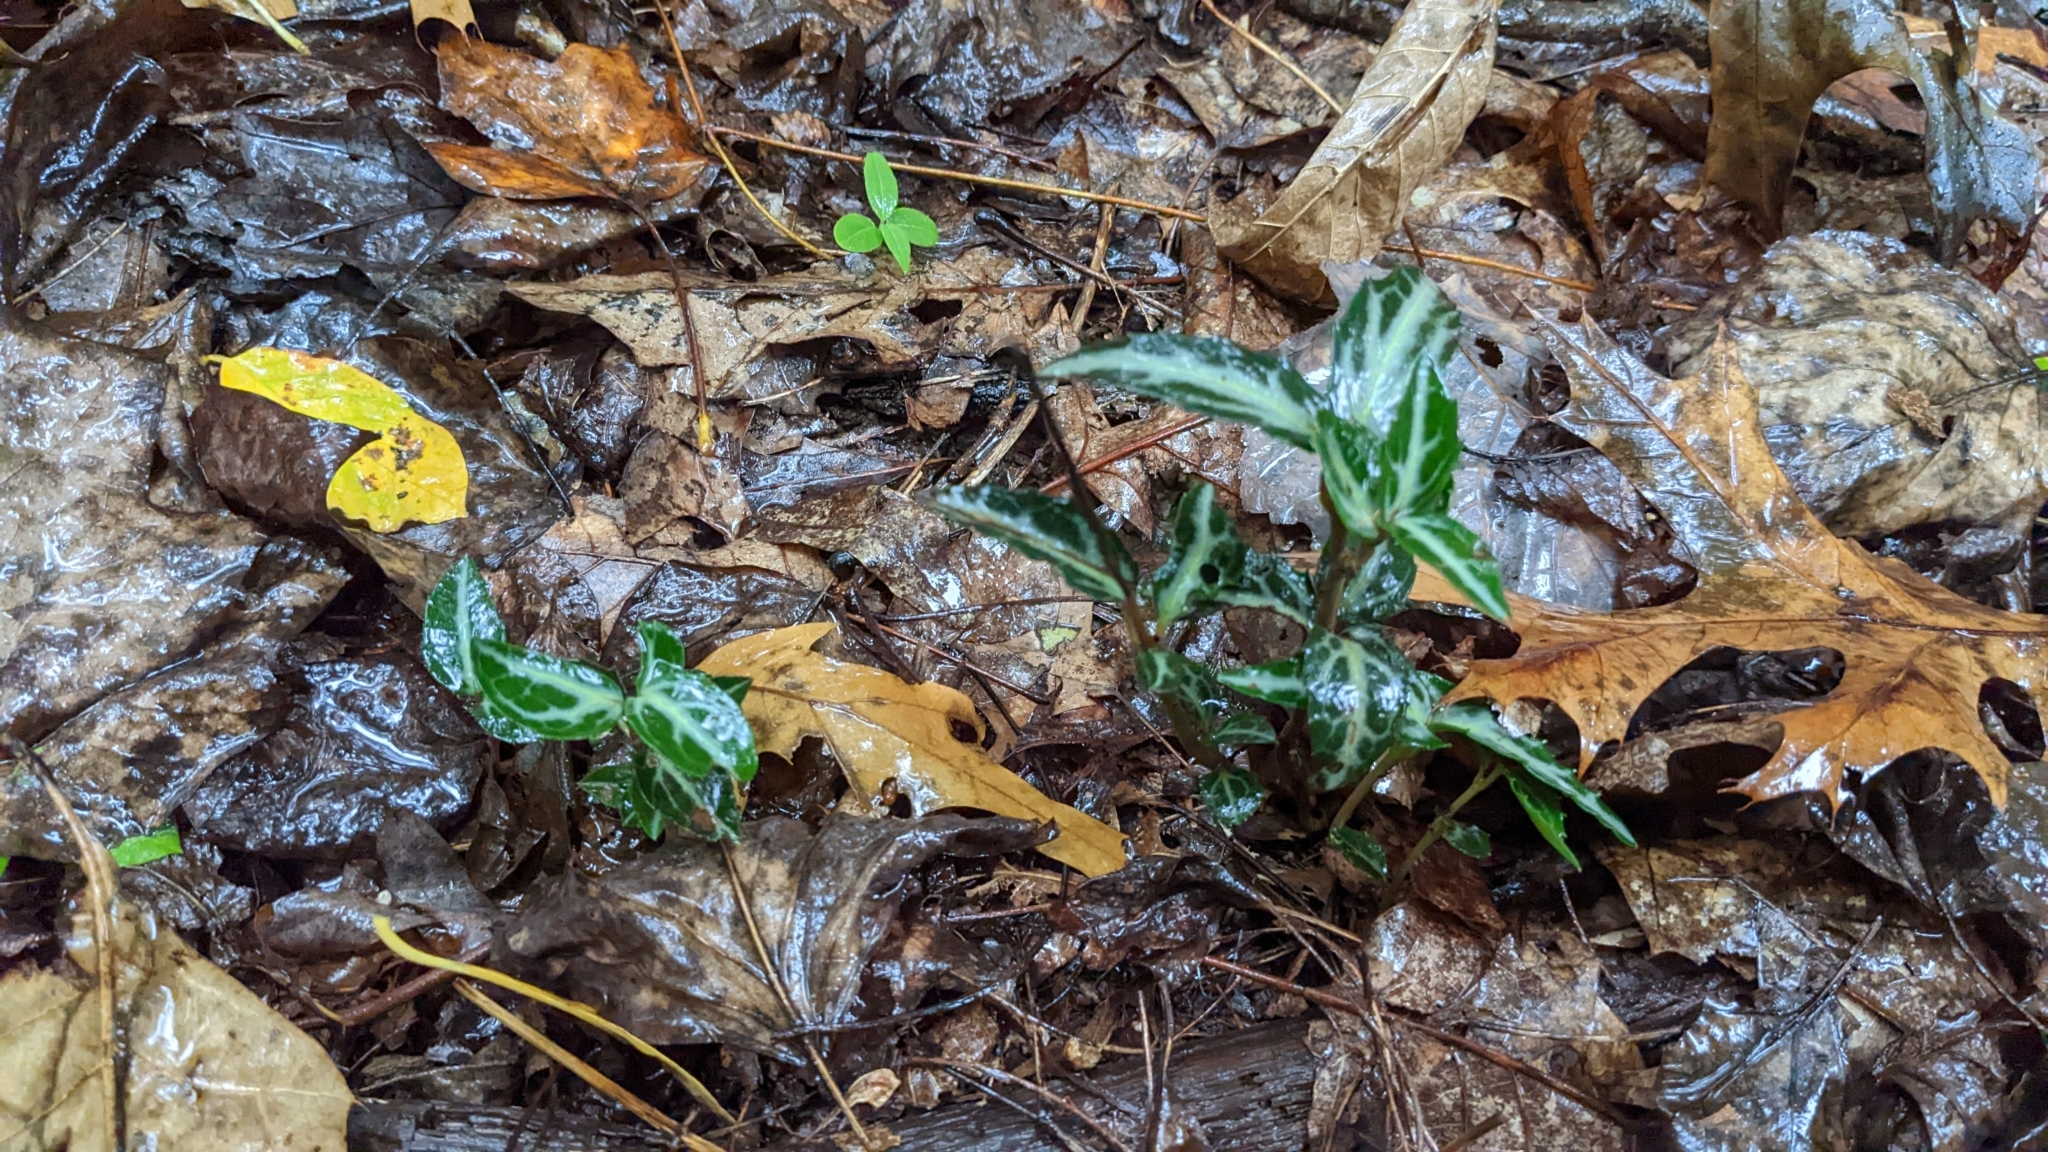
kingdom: Plantae
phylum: Tracheophyta
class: Magnoliopsida
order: Ericales
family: Ericaceae
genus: Chimaphila
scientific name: Chimaphila maculata
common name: Spotted pipsissewa
